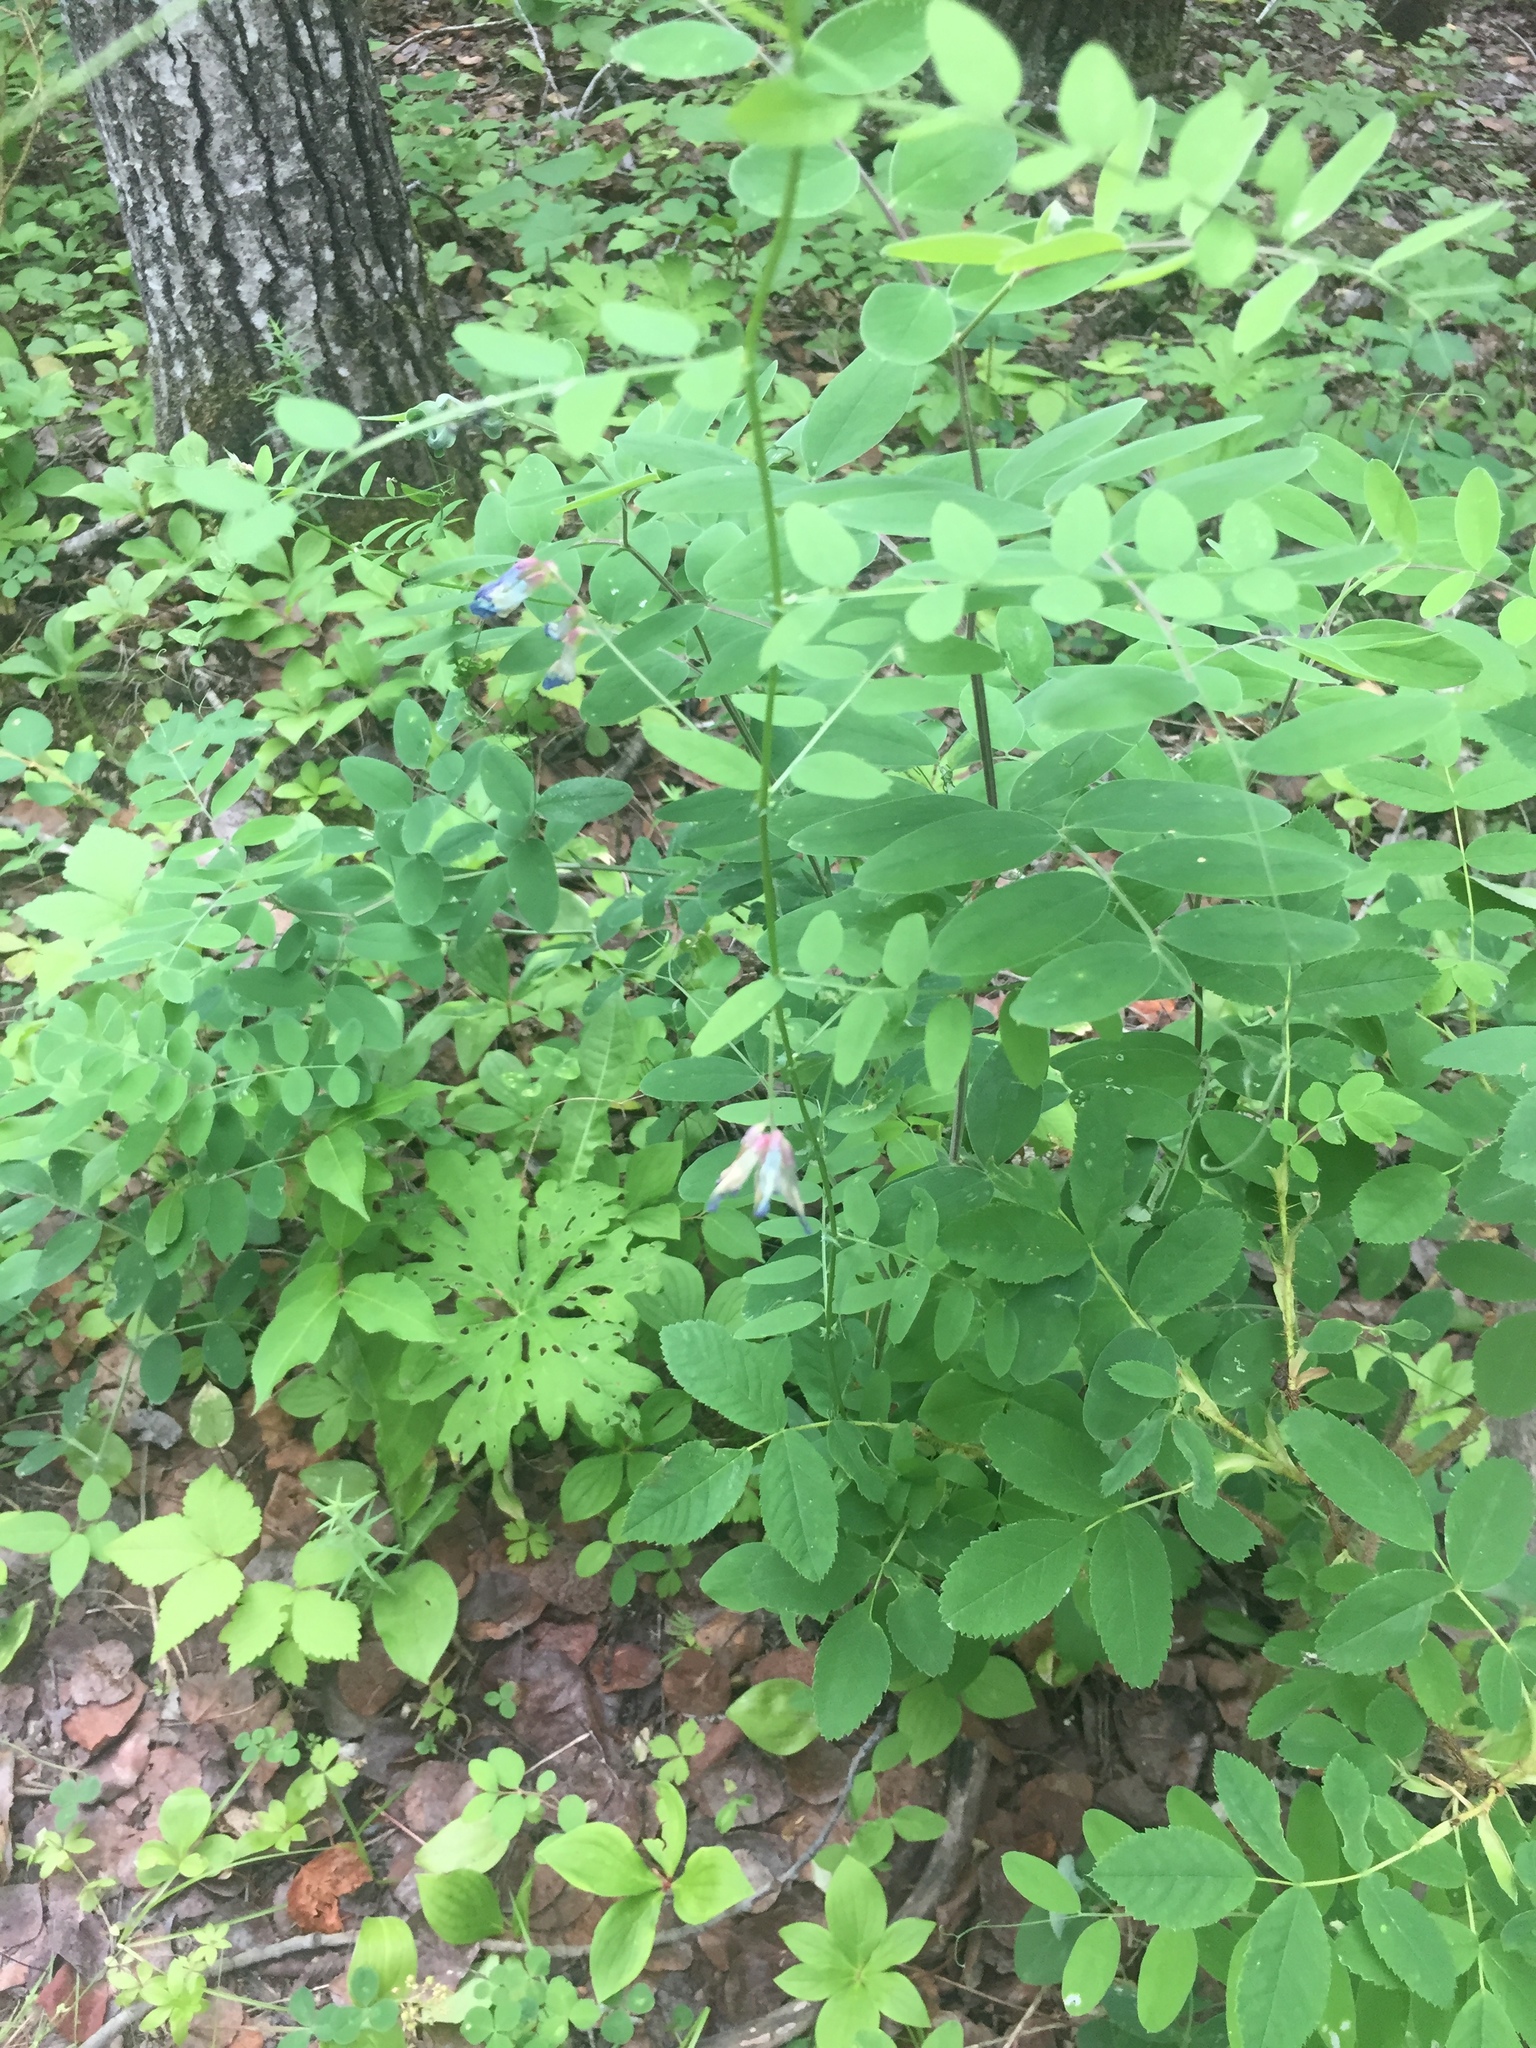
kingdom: Plantae
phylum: Tracheophyta
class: Magnoliopsida
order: Fabales
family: Fabaceae
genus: Vicia
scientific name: Vicia americana
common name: American vetch
